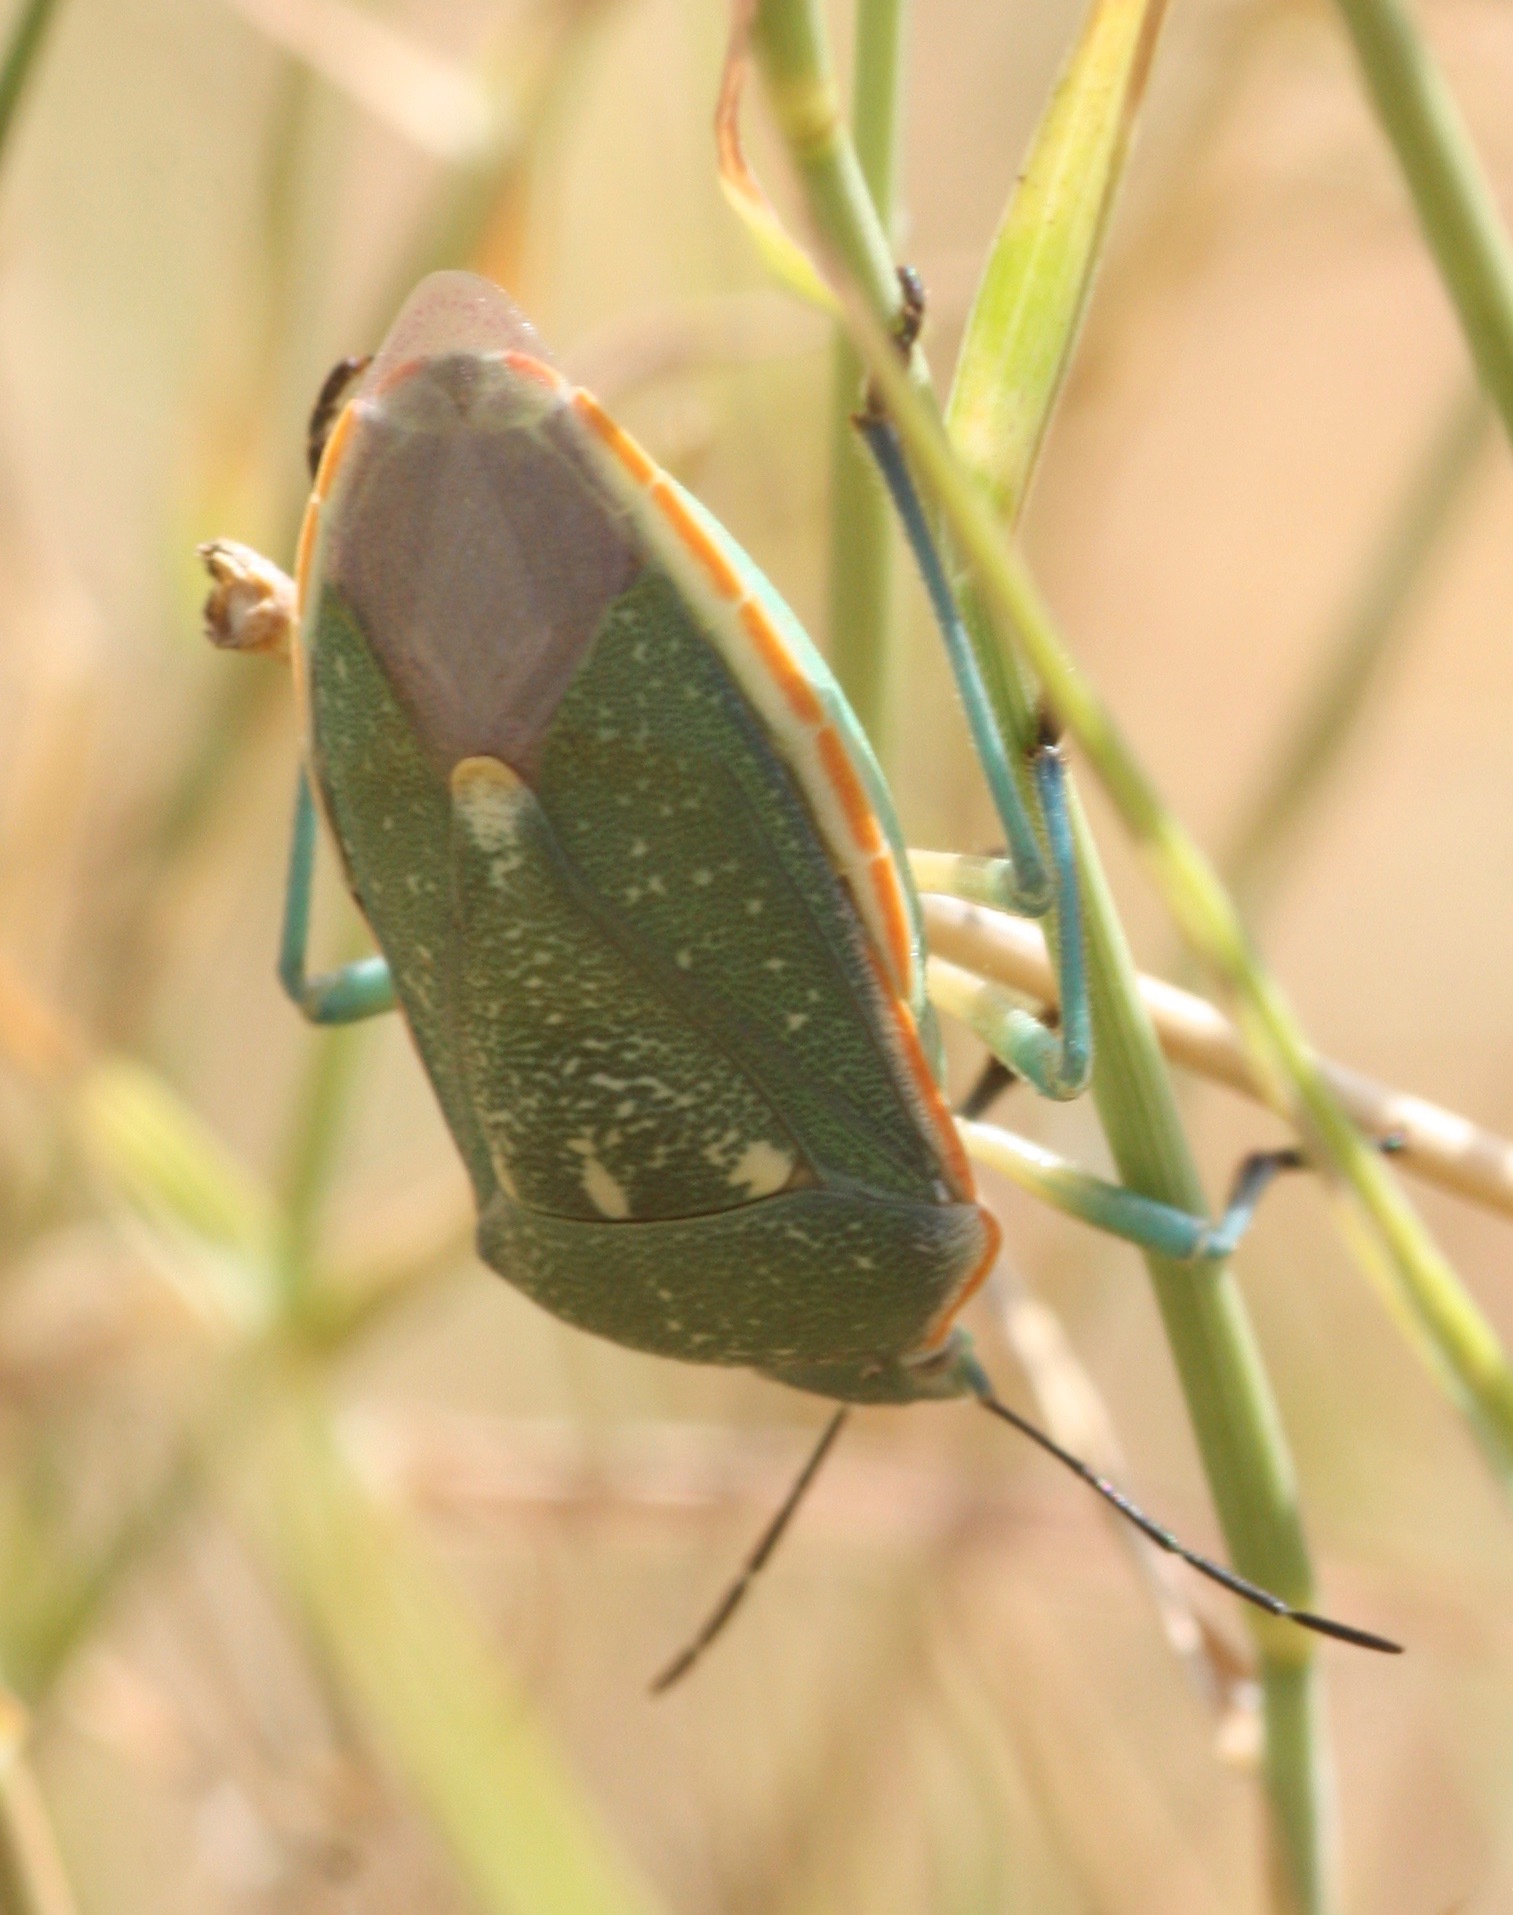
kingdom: Animalia
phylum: Arthropoda
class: Insecta
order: Hemiptera
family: Pentatomidae
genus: Chlorochroa
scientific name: Chlorochroa sayi
